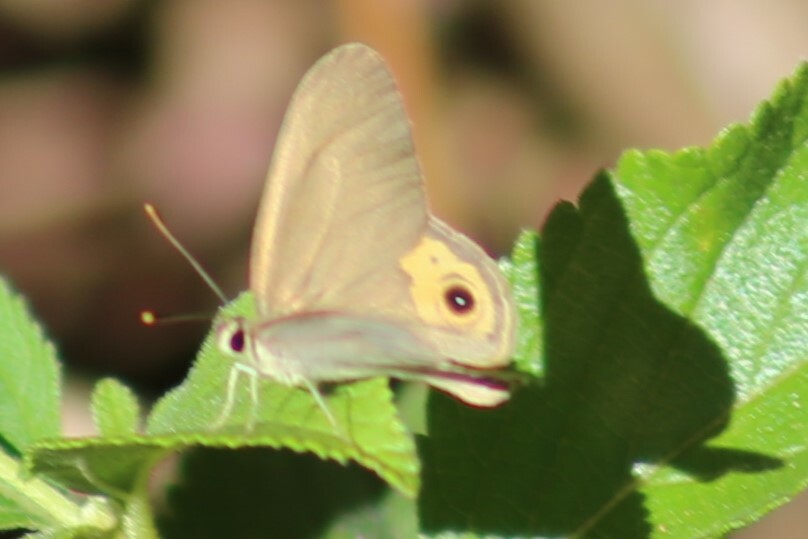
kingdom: Animalia
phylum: Arthropoda
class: Insecta
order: Lepidoptera
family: Nymphalidae
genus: Hypocysta
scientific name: Hypocysta pseudirius
